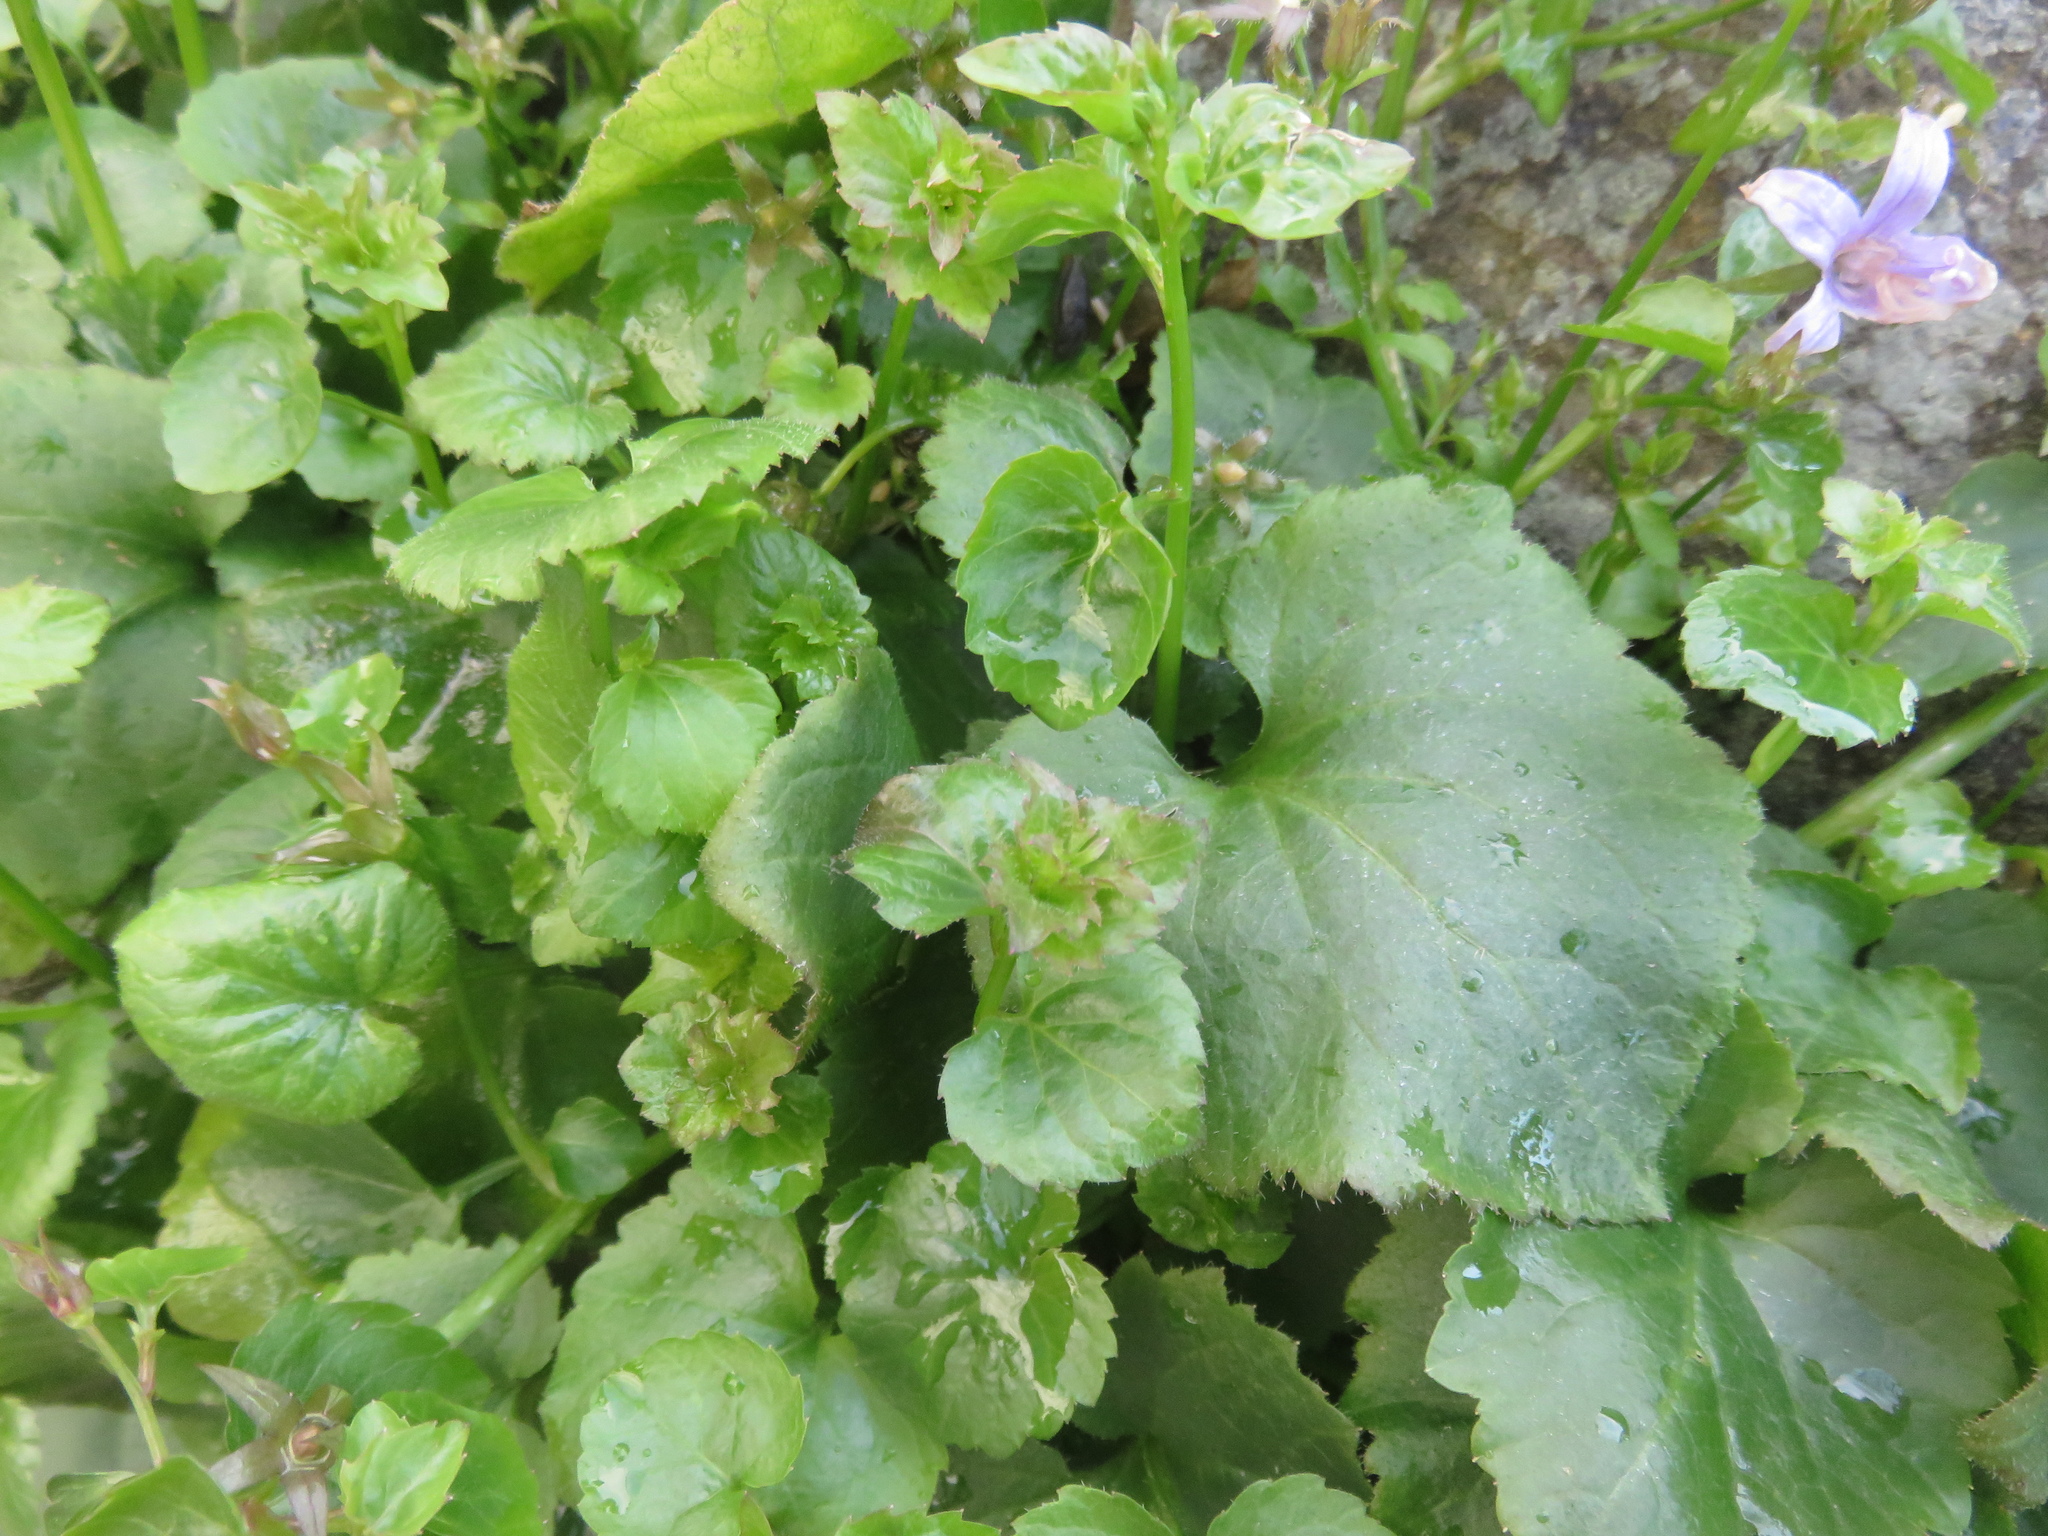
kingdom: Plantae
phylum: Tracheophyta
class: Magnoliopsida
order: Asterales
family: Campanulaceae
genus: Campanula
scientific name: Campanula poscharskyana
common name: Trailing bellflower
